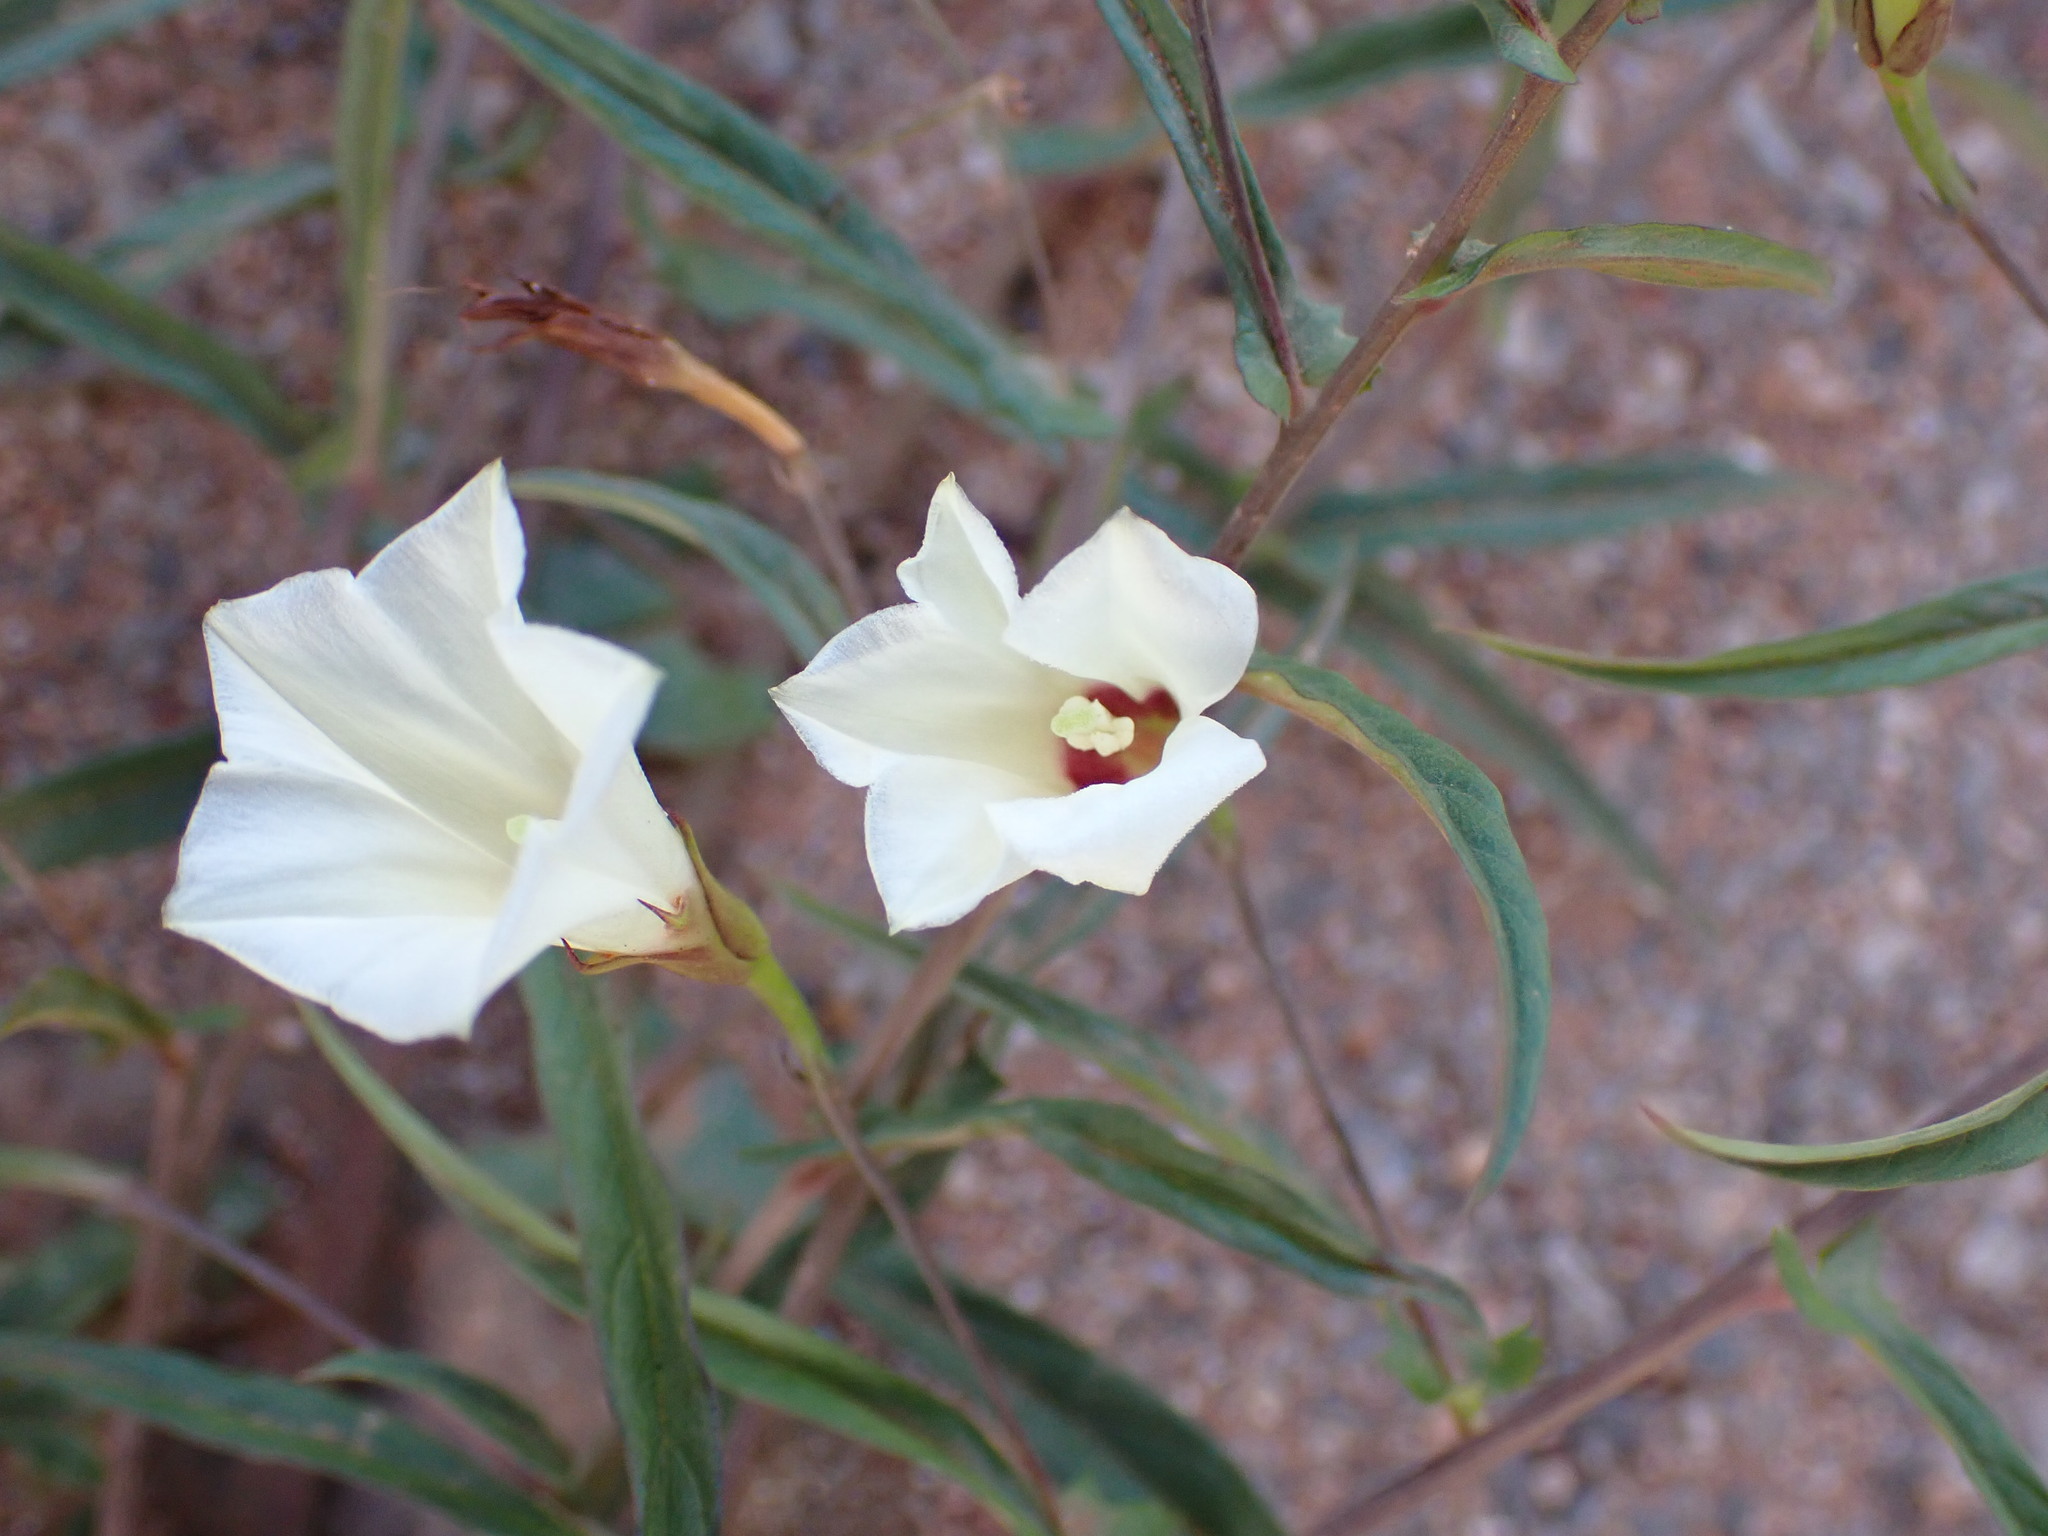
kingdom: Plantae
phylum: Tracheophyta
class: Magnoliopsida
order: Solanales
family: Convolvulaceae
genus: Xenostegia
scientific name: Xenostegia tridentata
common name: African morningvine
